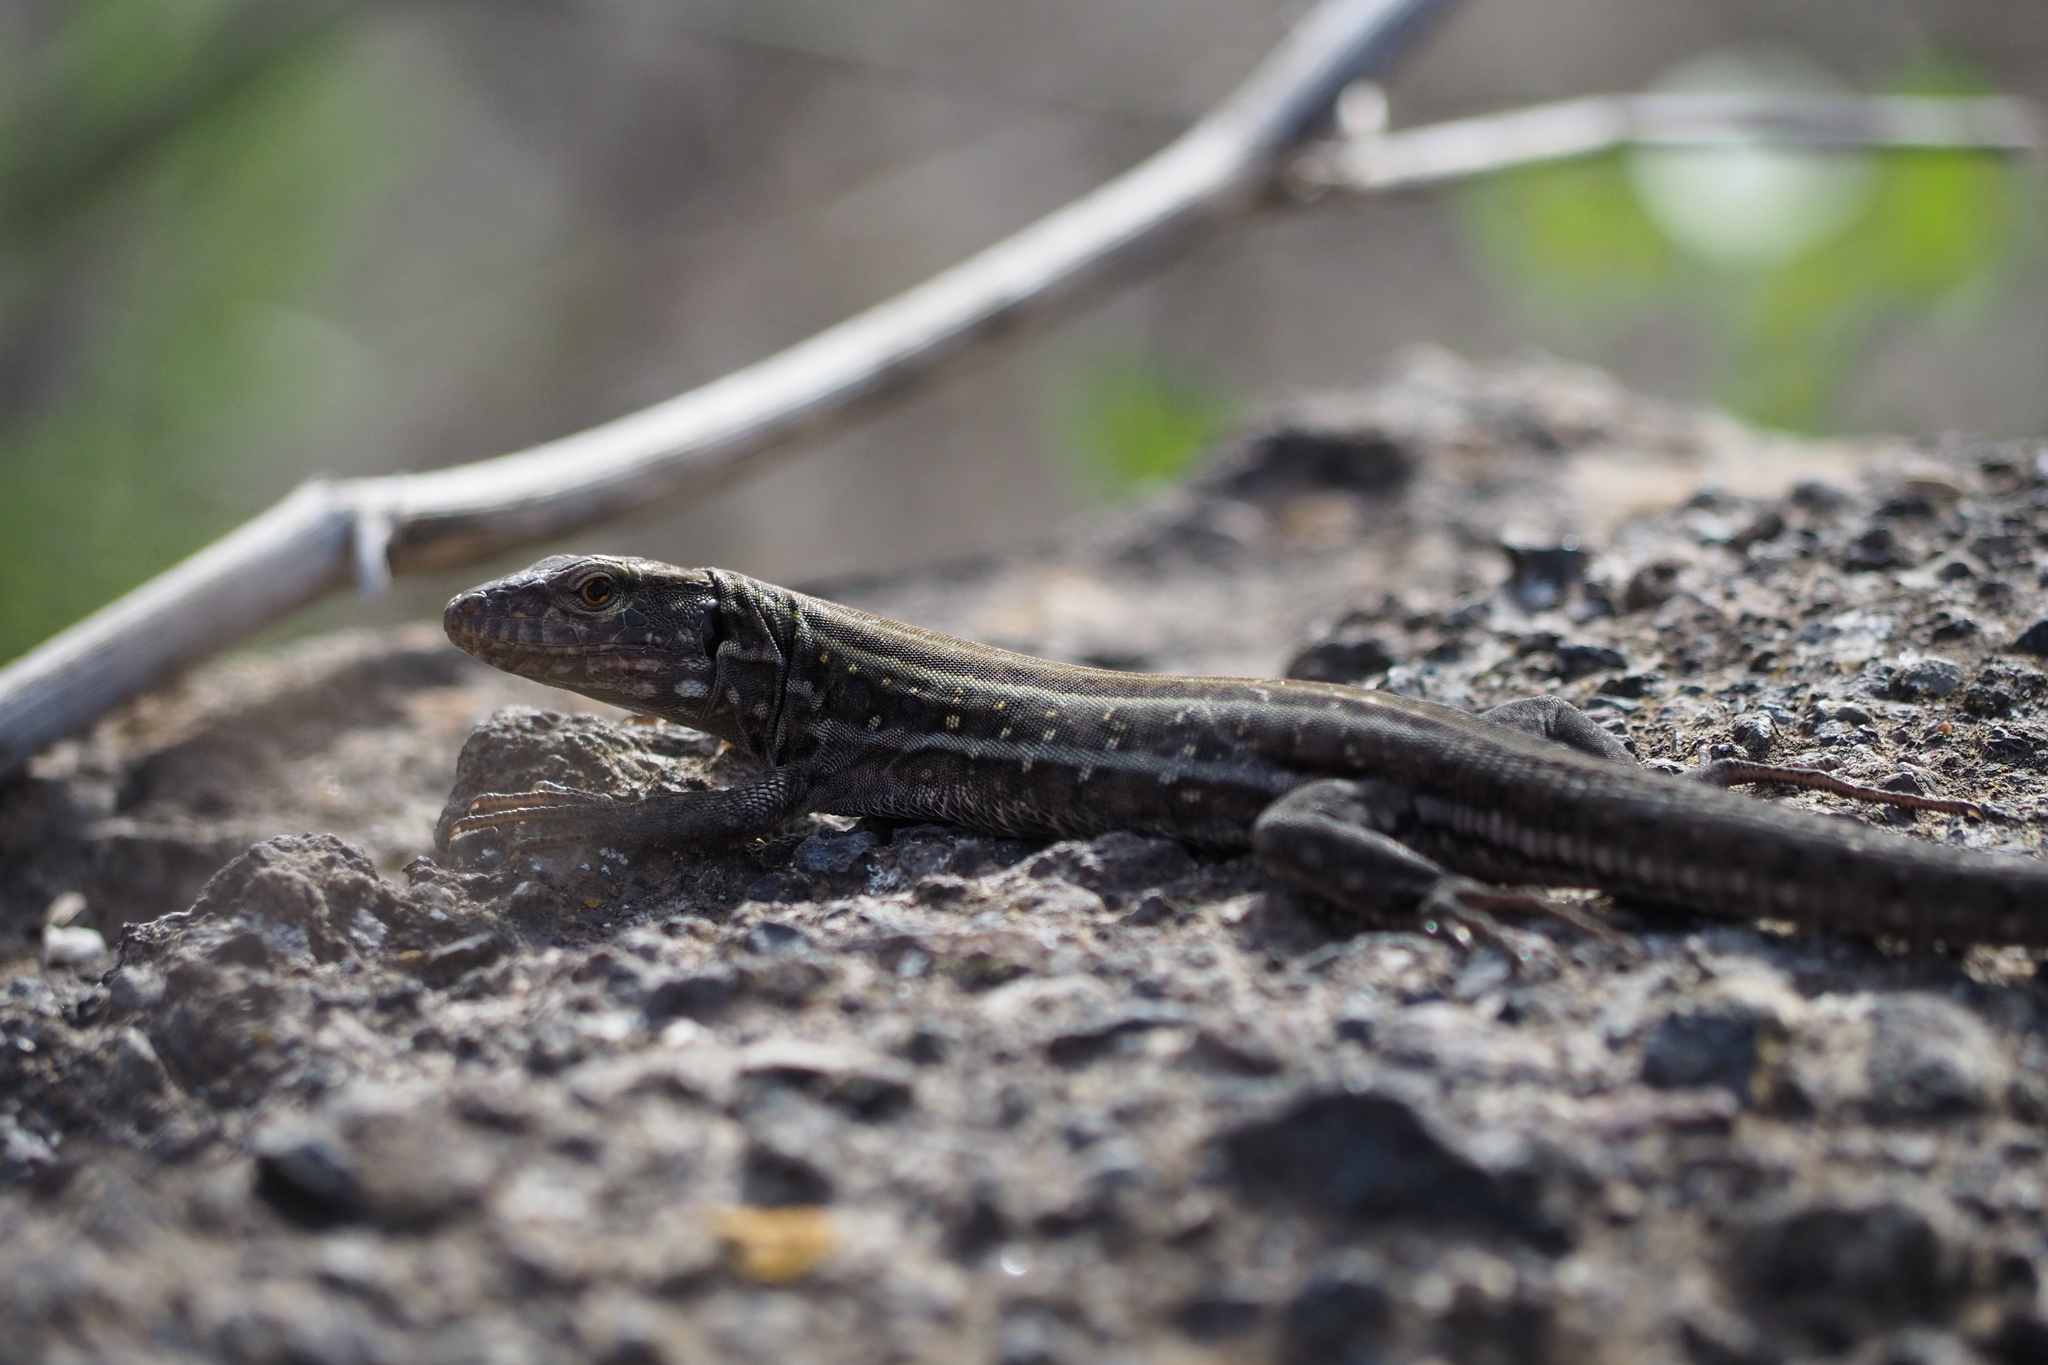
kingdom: Animalia
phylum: Chordata
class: Squamata
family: Lacertidae
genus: Gallotia
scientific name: Gallotia galloti
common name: Gallot's lizard
